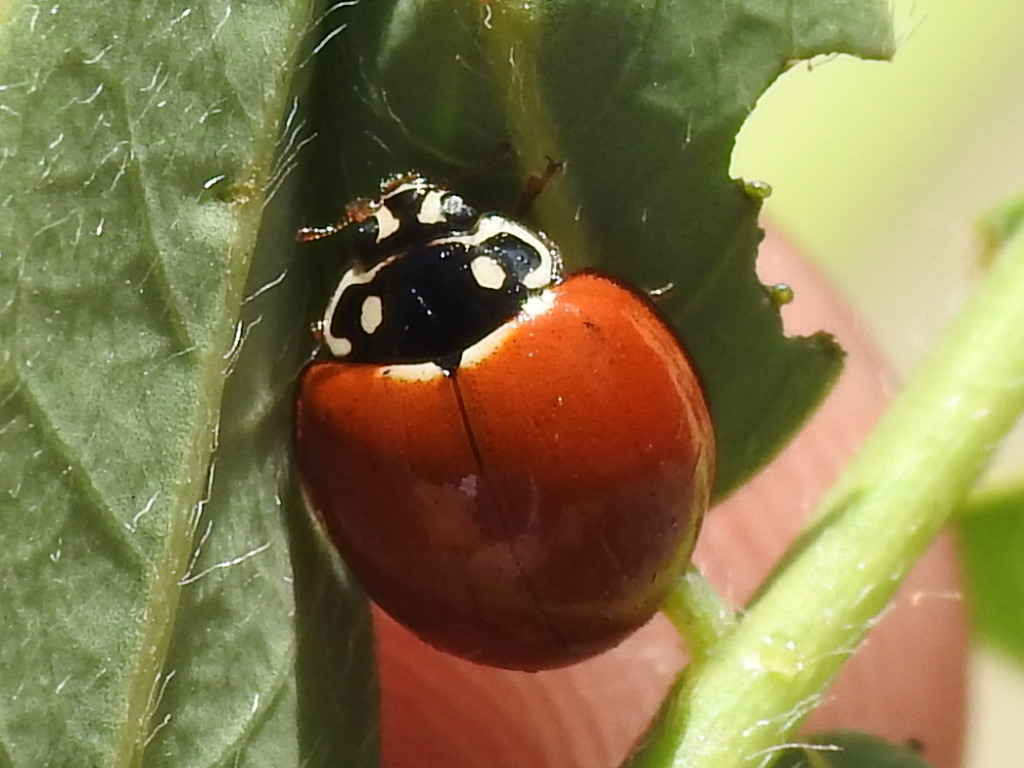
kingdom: Animalia
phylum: Arthropoda
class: Insecta
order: Coleoptera
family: Coccinellidae
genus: Cycloneda
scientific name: Cycloneda sanguinea
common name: Ladybird beetle
